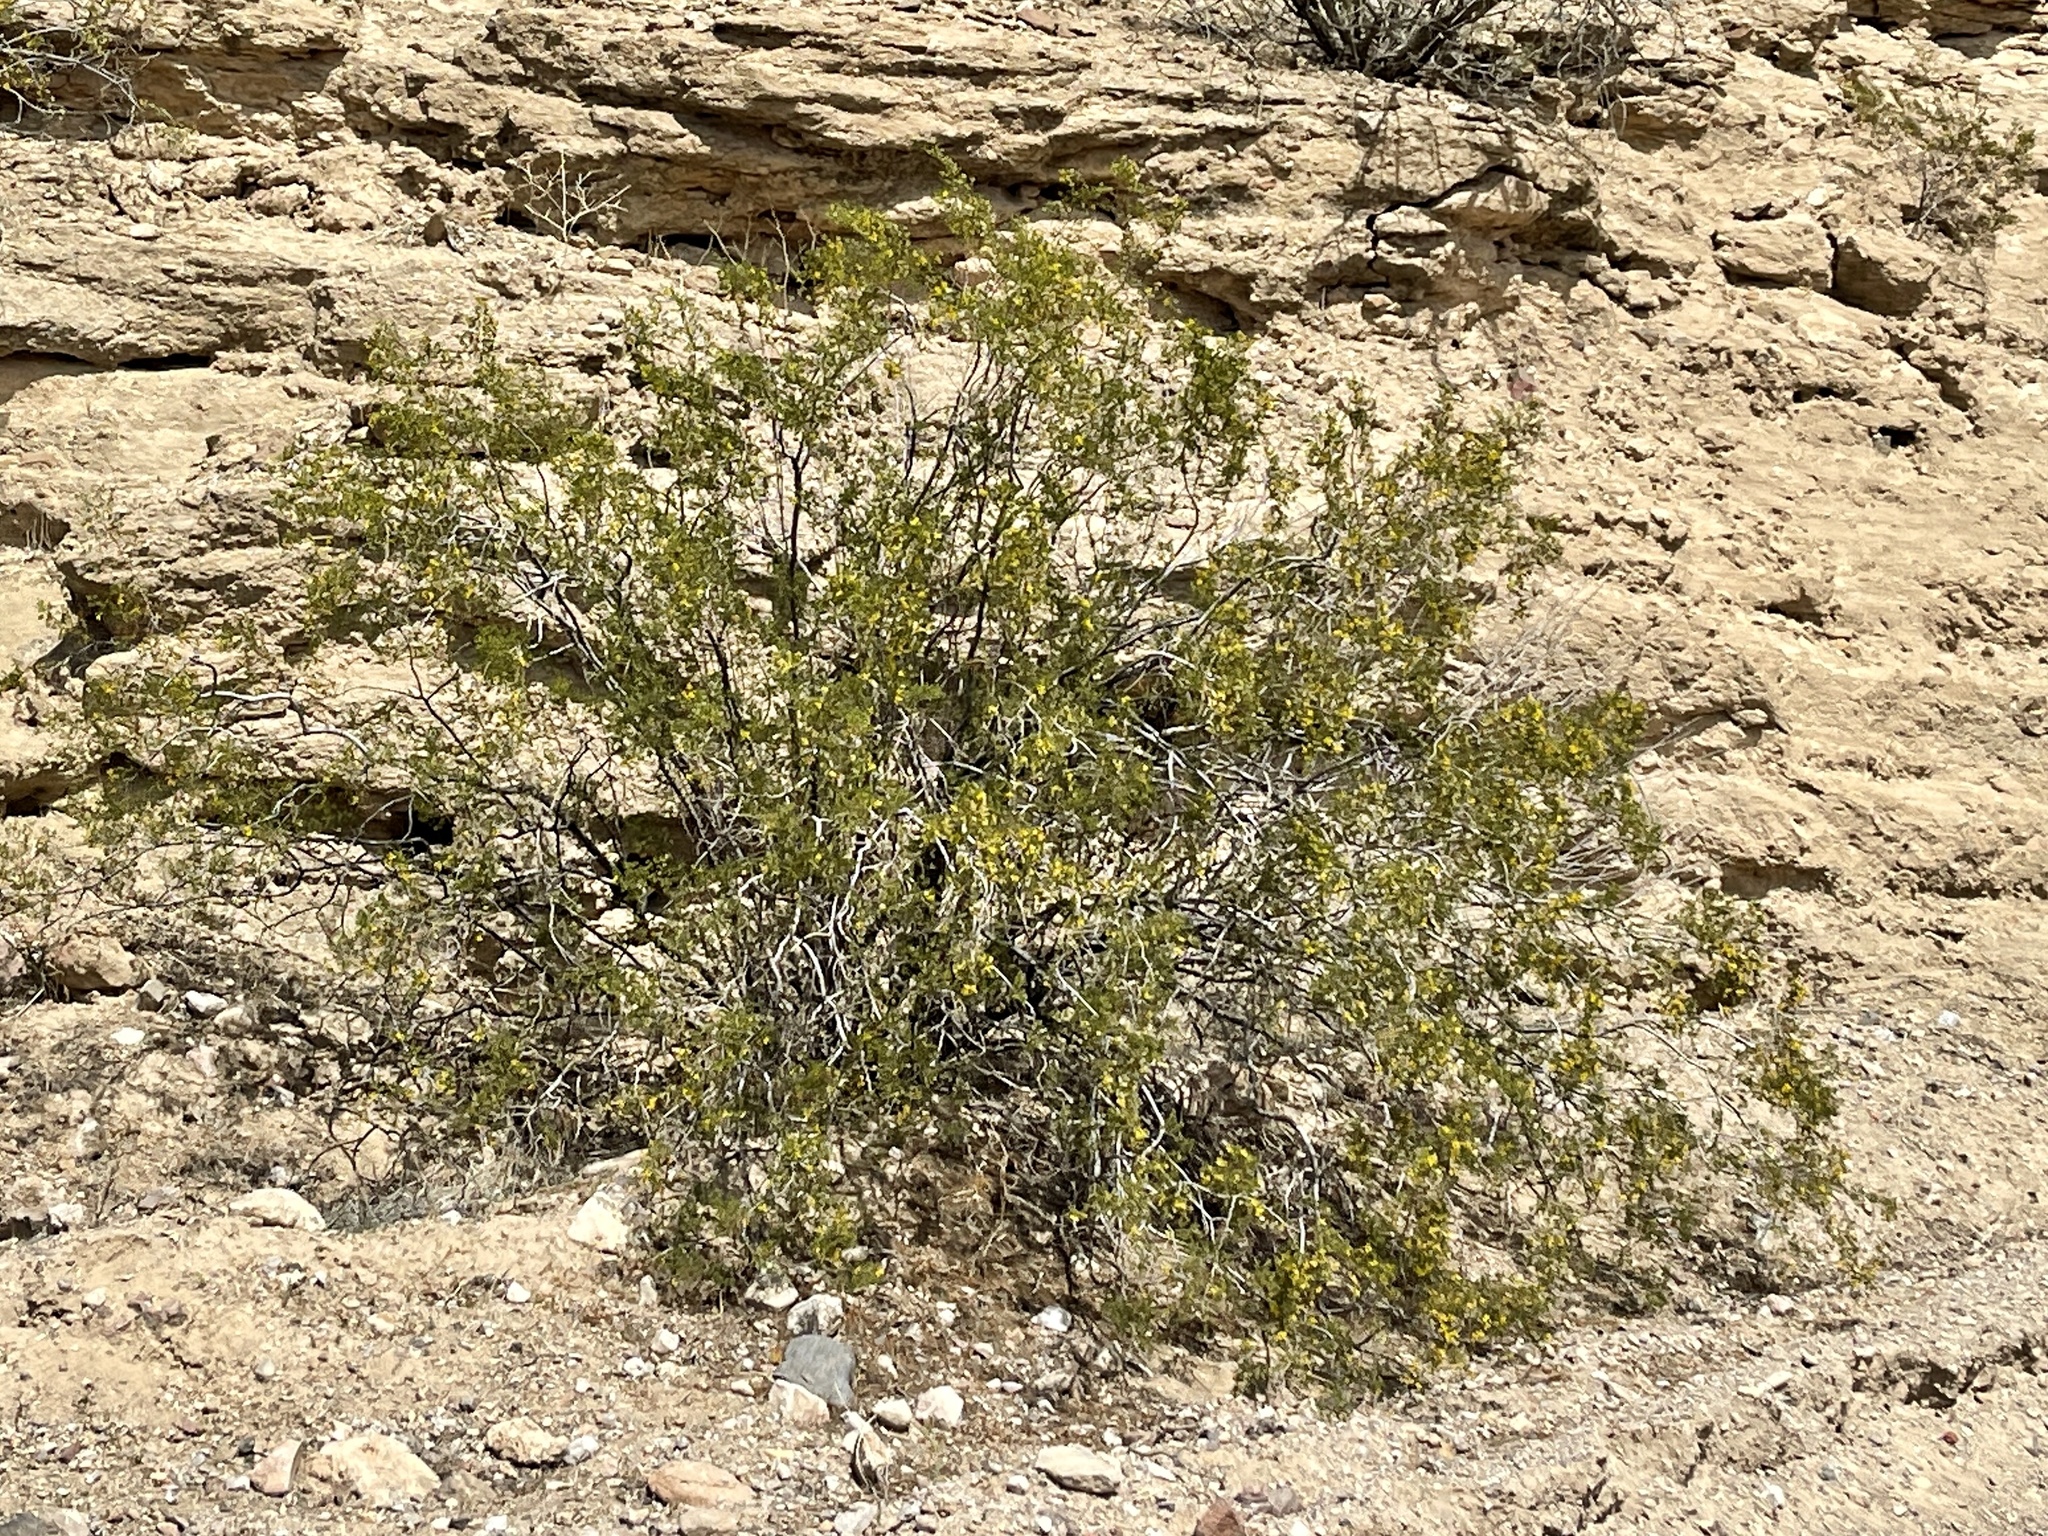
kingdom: Plantae
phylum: Tracheophyta
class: Magnoliopsida
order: Zygophyllales
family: Zygophyllaceae
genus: Larrea
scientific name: Larrea tridentata
